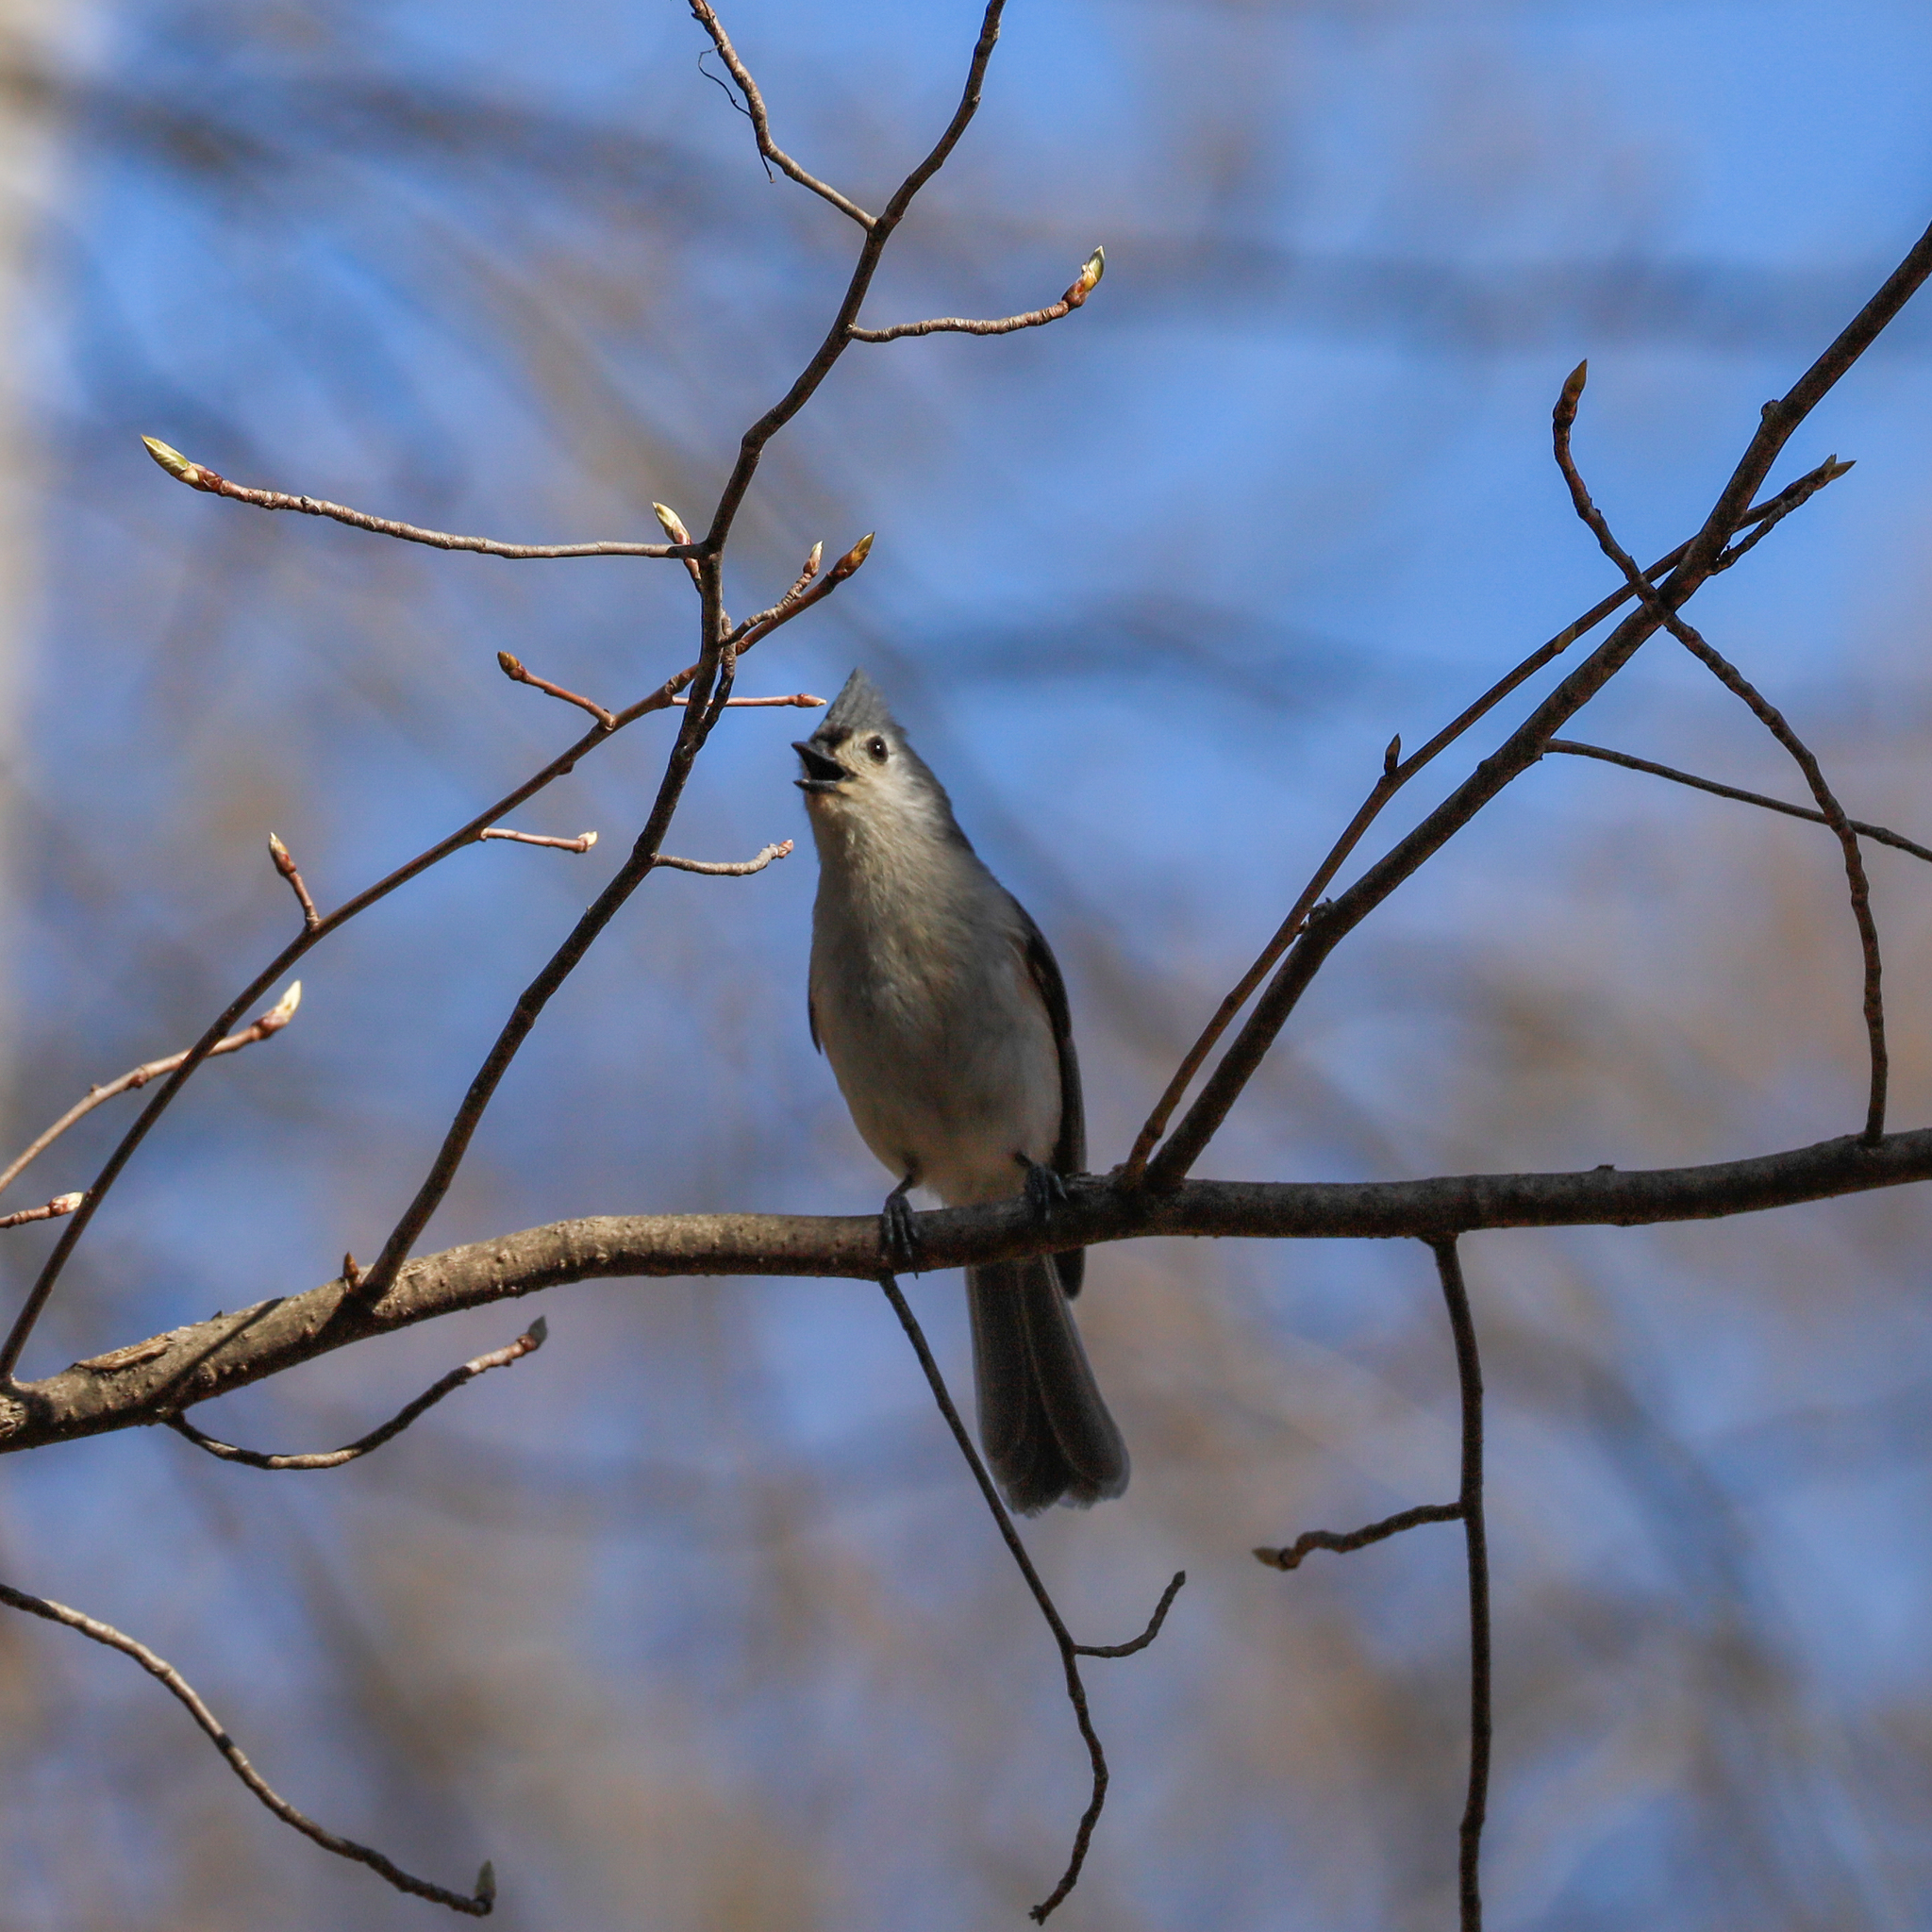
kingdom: Animalia
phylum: Chordata
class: Aves
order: Passeriformes
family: Paridae
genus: Baeolophus
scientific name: Baeolophus bicolor
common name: Tufted titmouse
